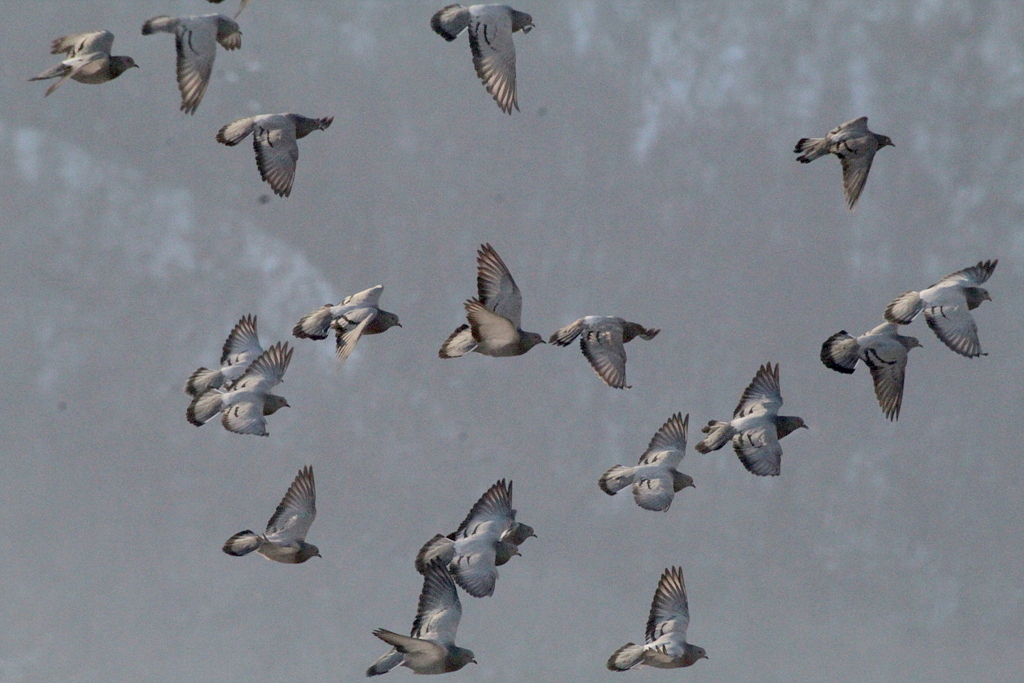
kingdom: Animalia
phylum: Chordata
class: Aves
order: Columbiformes
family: Columbidae
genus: Columba
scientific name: Columba livia
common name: Rock pigeon
